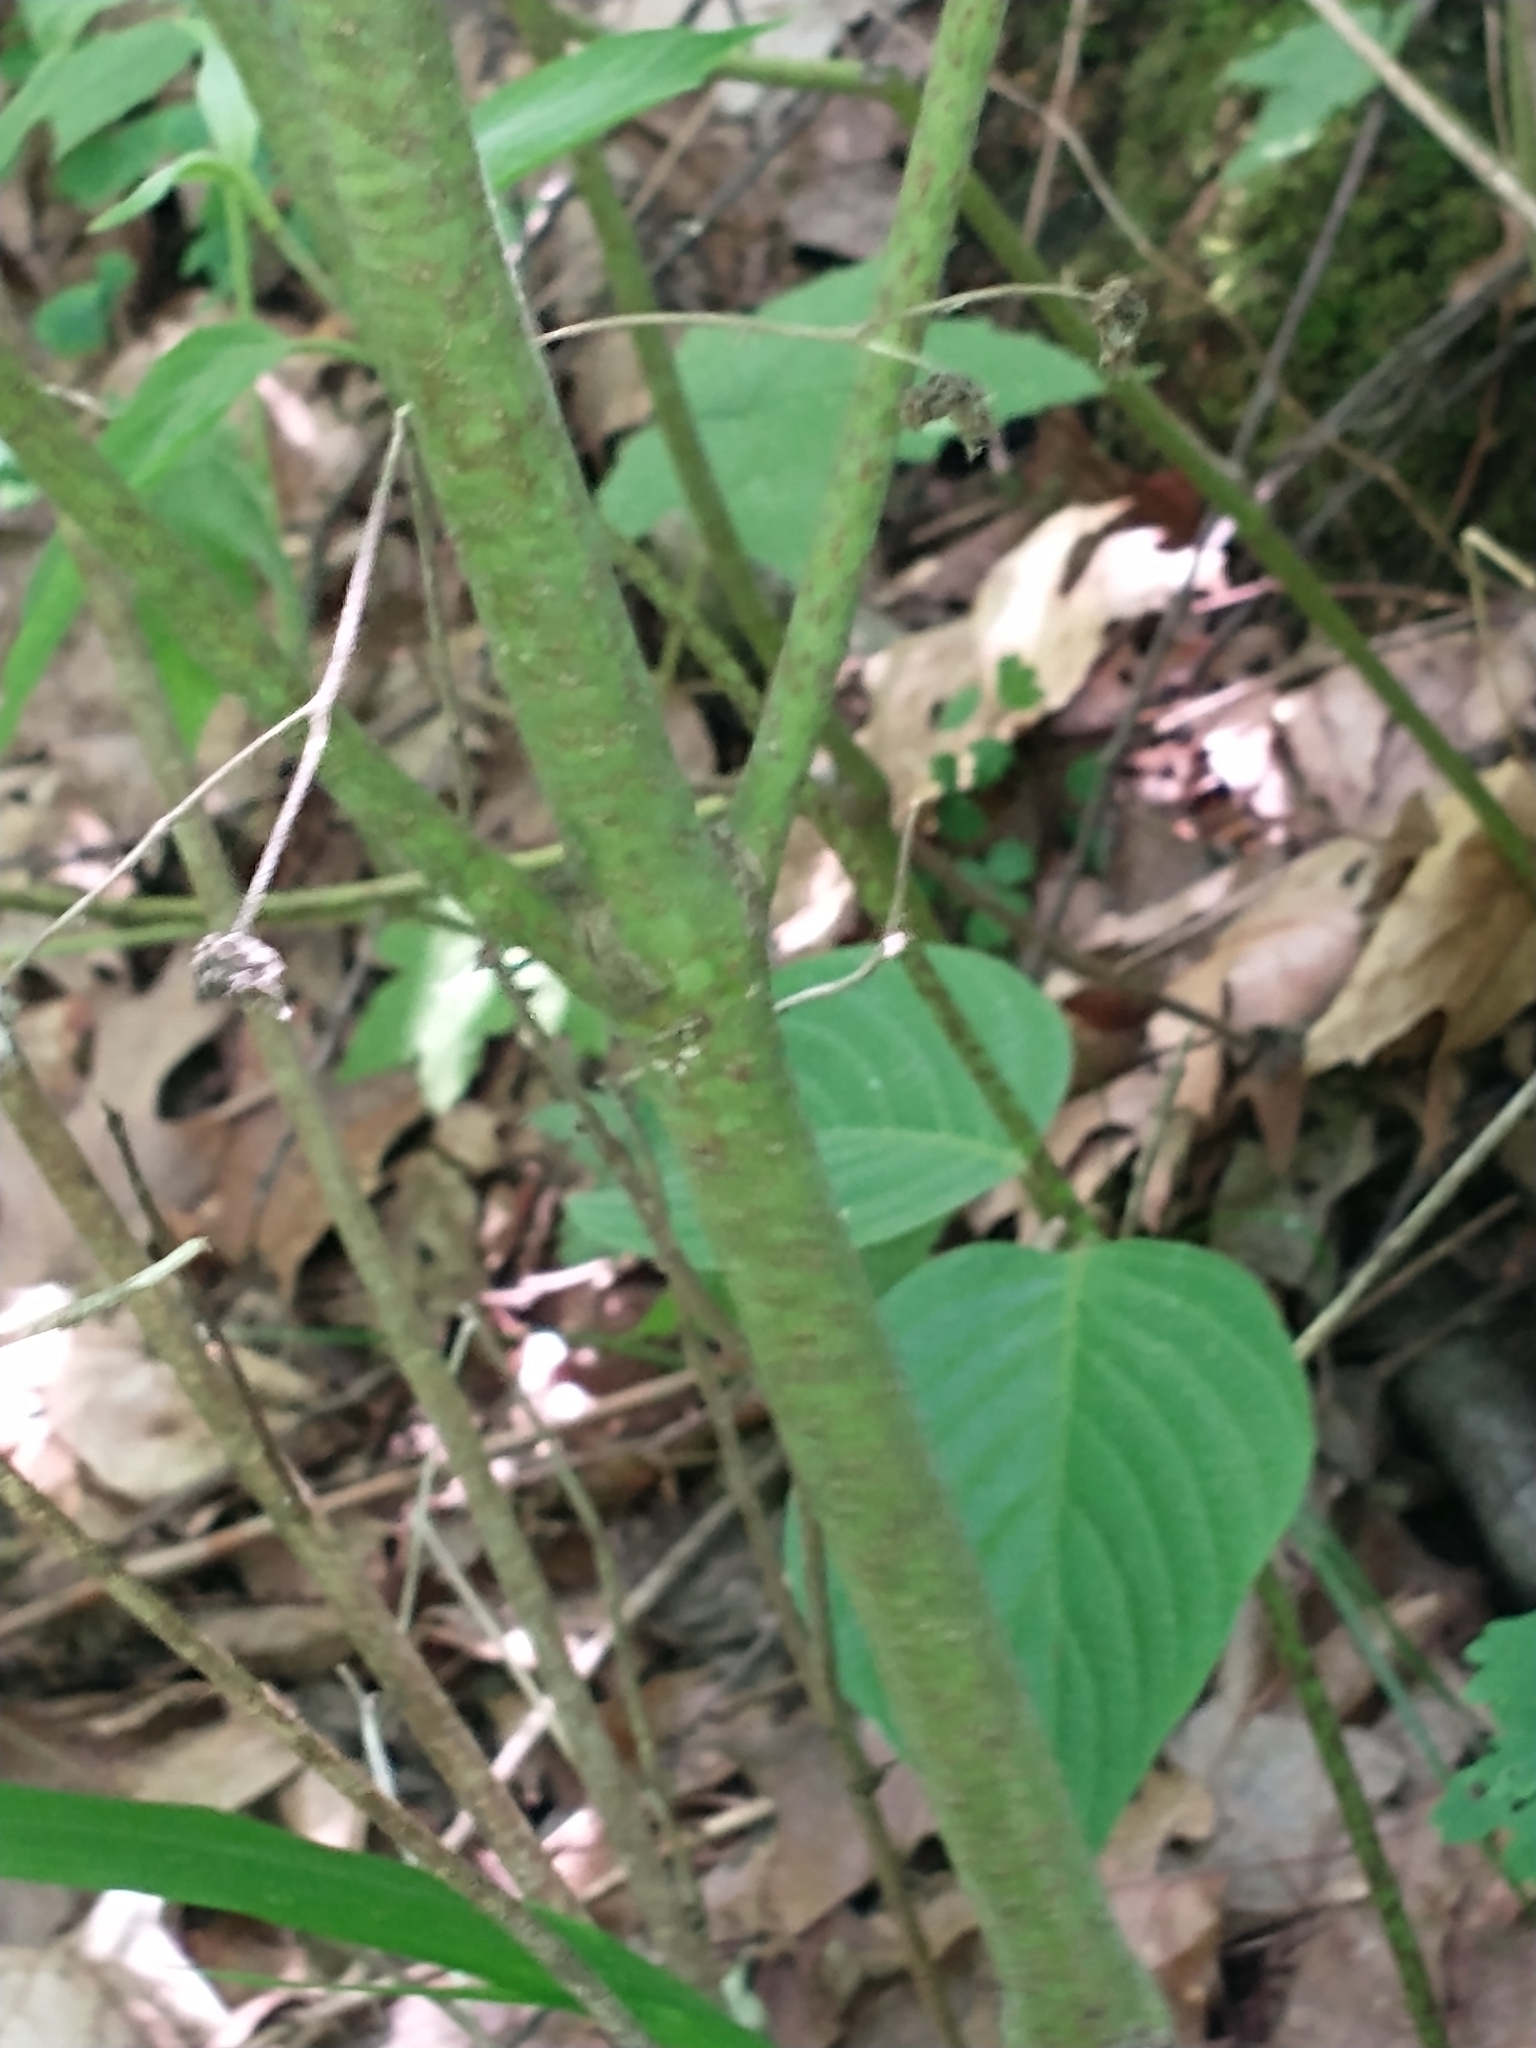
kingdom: Plantae
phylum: Tracheophyta
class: Magnoliopsida
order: Cornales
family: Cornaceae
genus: Cornus
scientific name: Cornus rugosa
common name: Round-leaf dogwood
